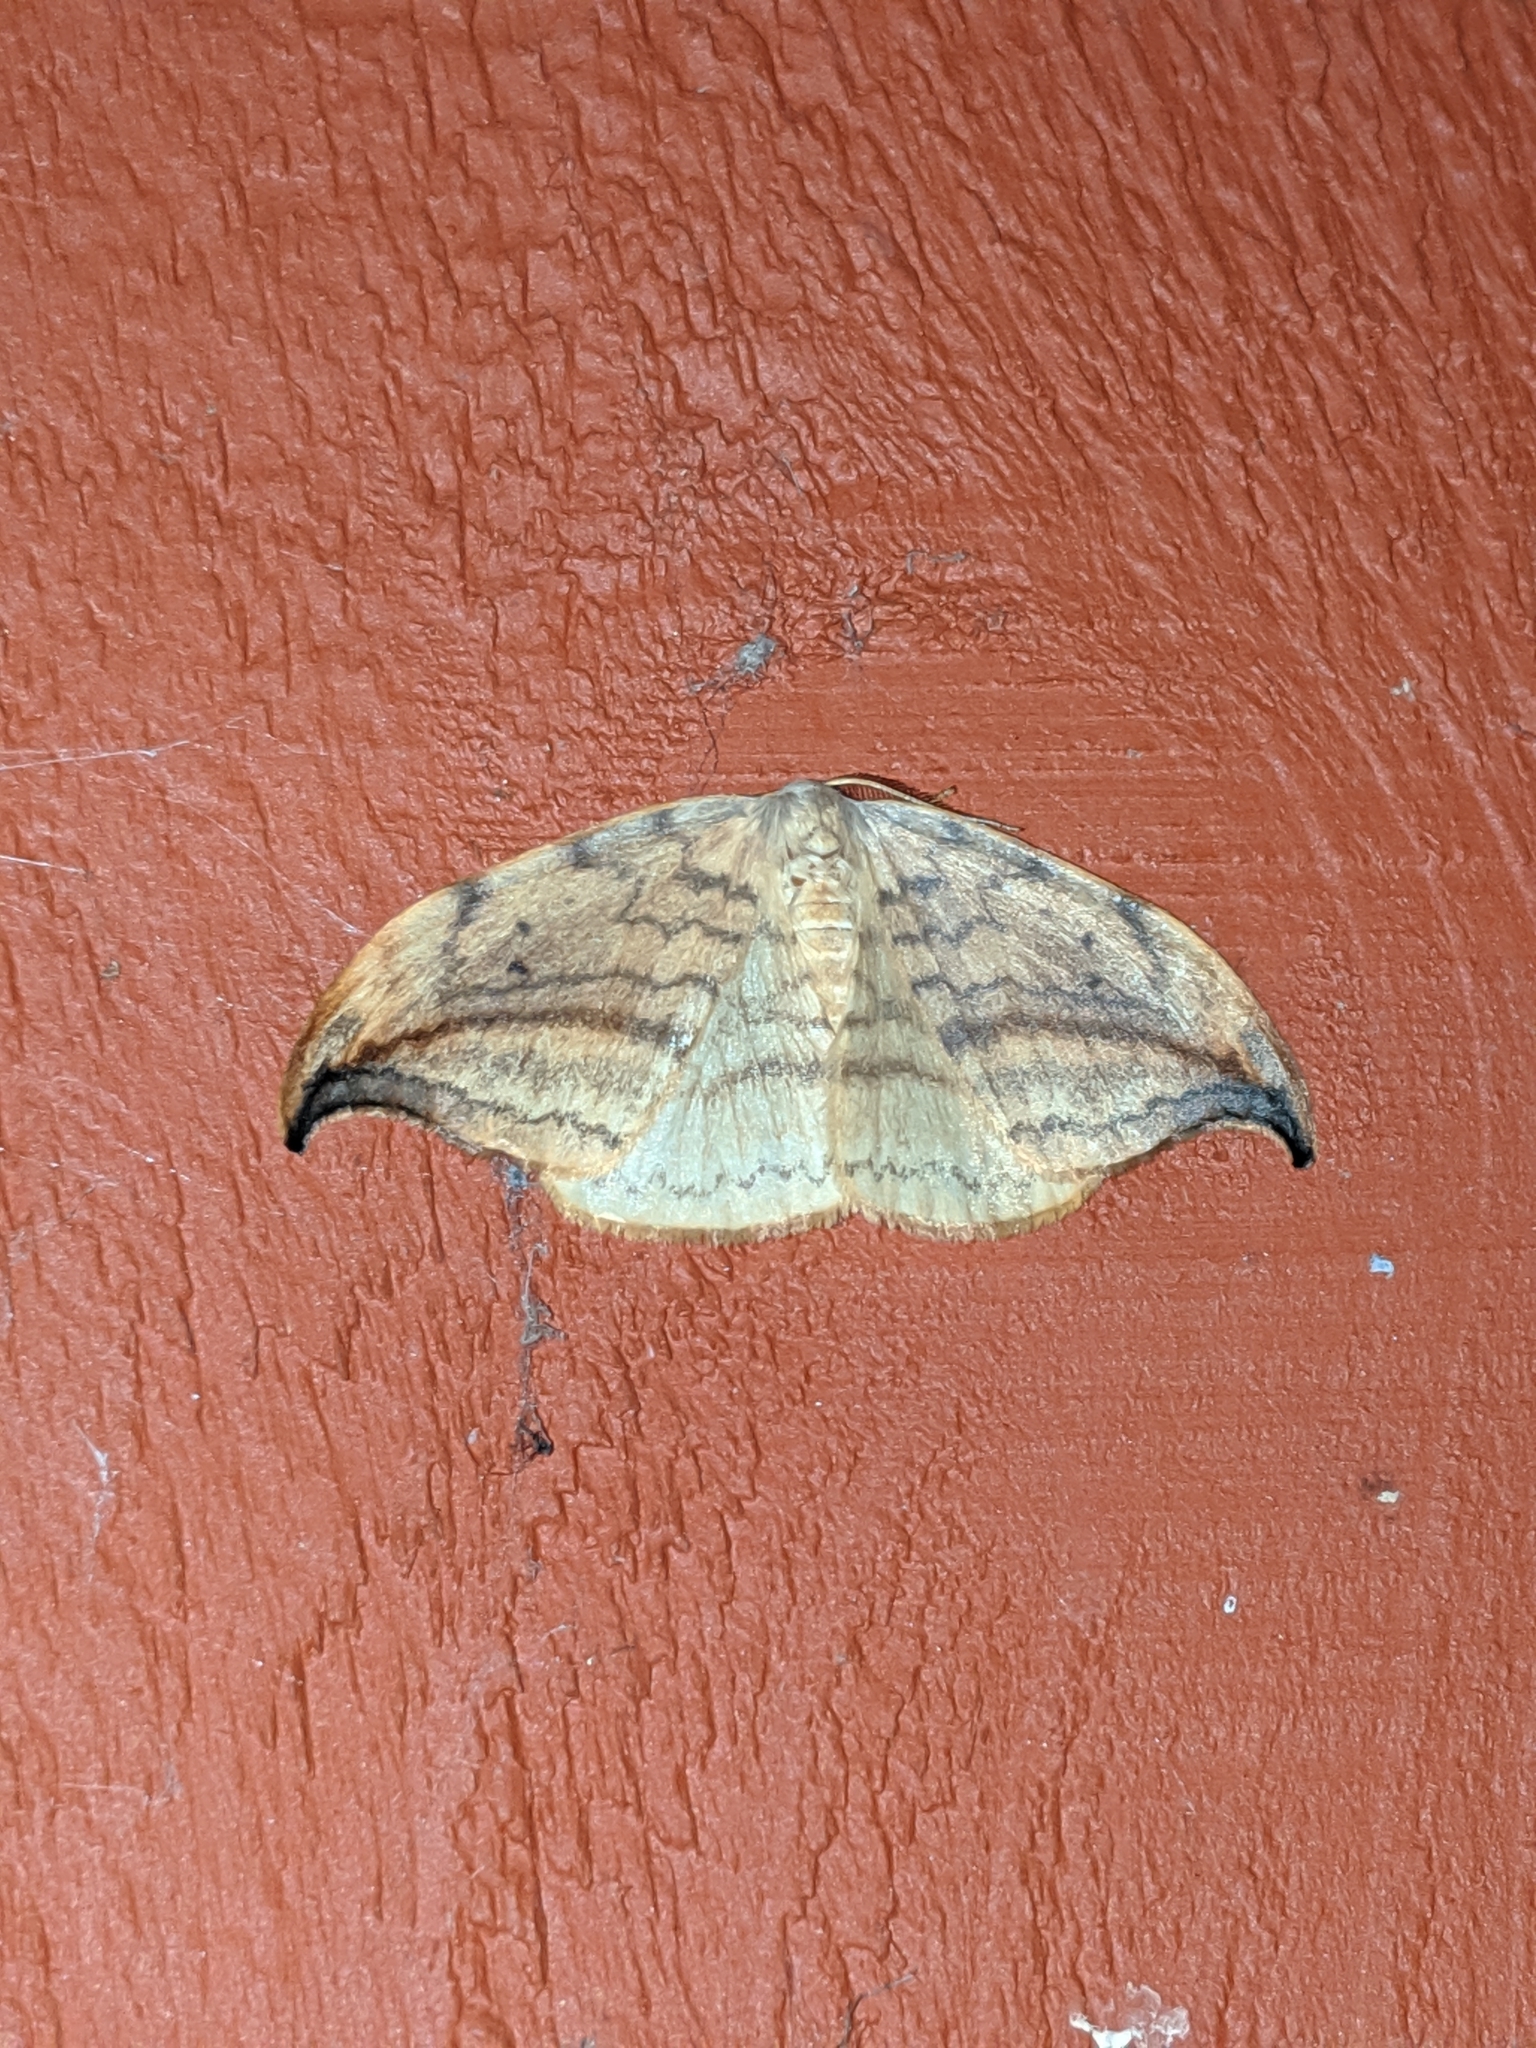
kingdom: Animalia
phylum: Arthropoda
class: Insecta
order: Lepidoptera
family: Drepanidae
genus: Drepana
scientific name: Drepana arcuata
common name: Arched hooktip moth
